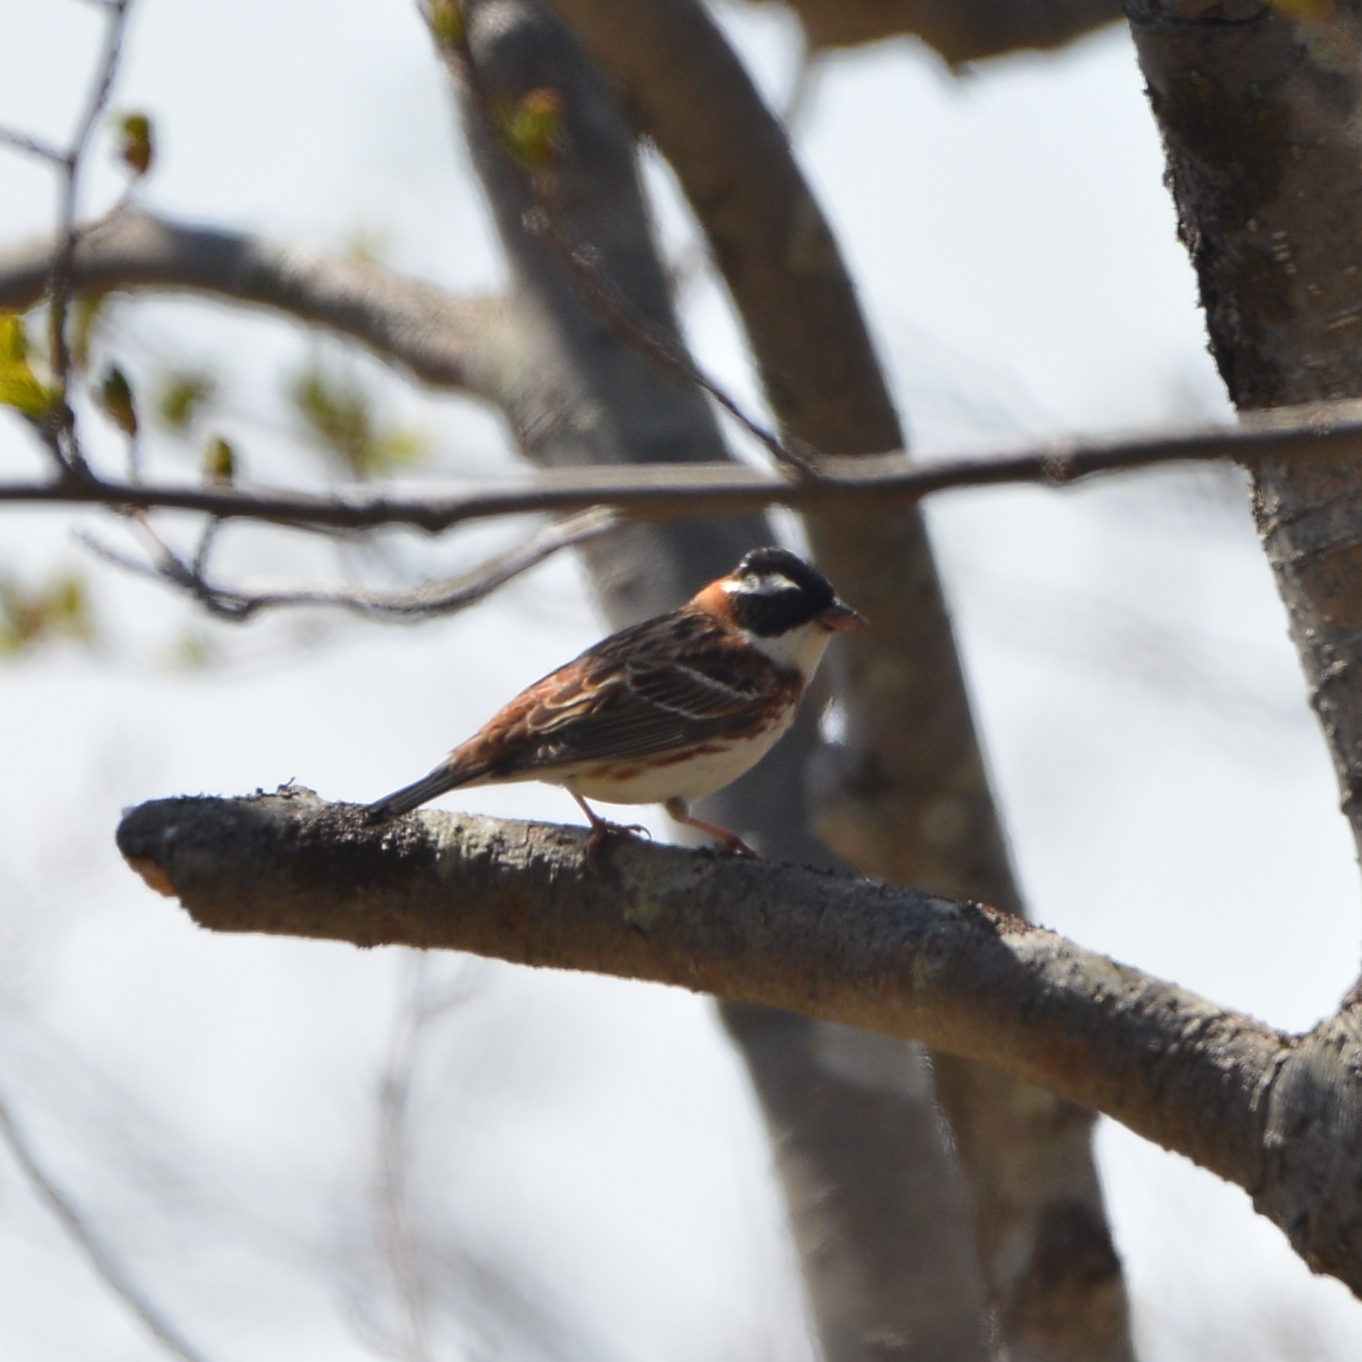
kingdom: Animalia
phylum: Chordata
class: Aves
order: Passeriformes
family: Emberizidae
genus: Emberiza
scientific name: Emberiza rustica
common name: Rustic bunting
